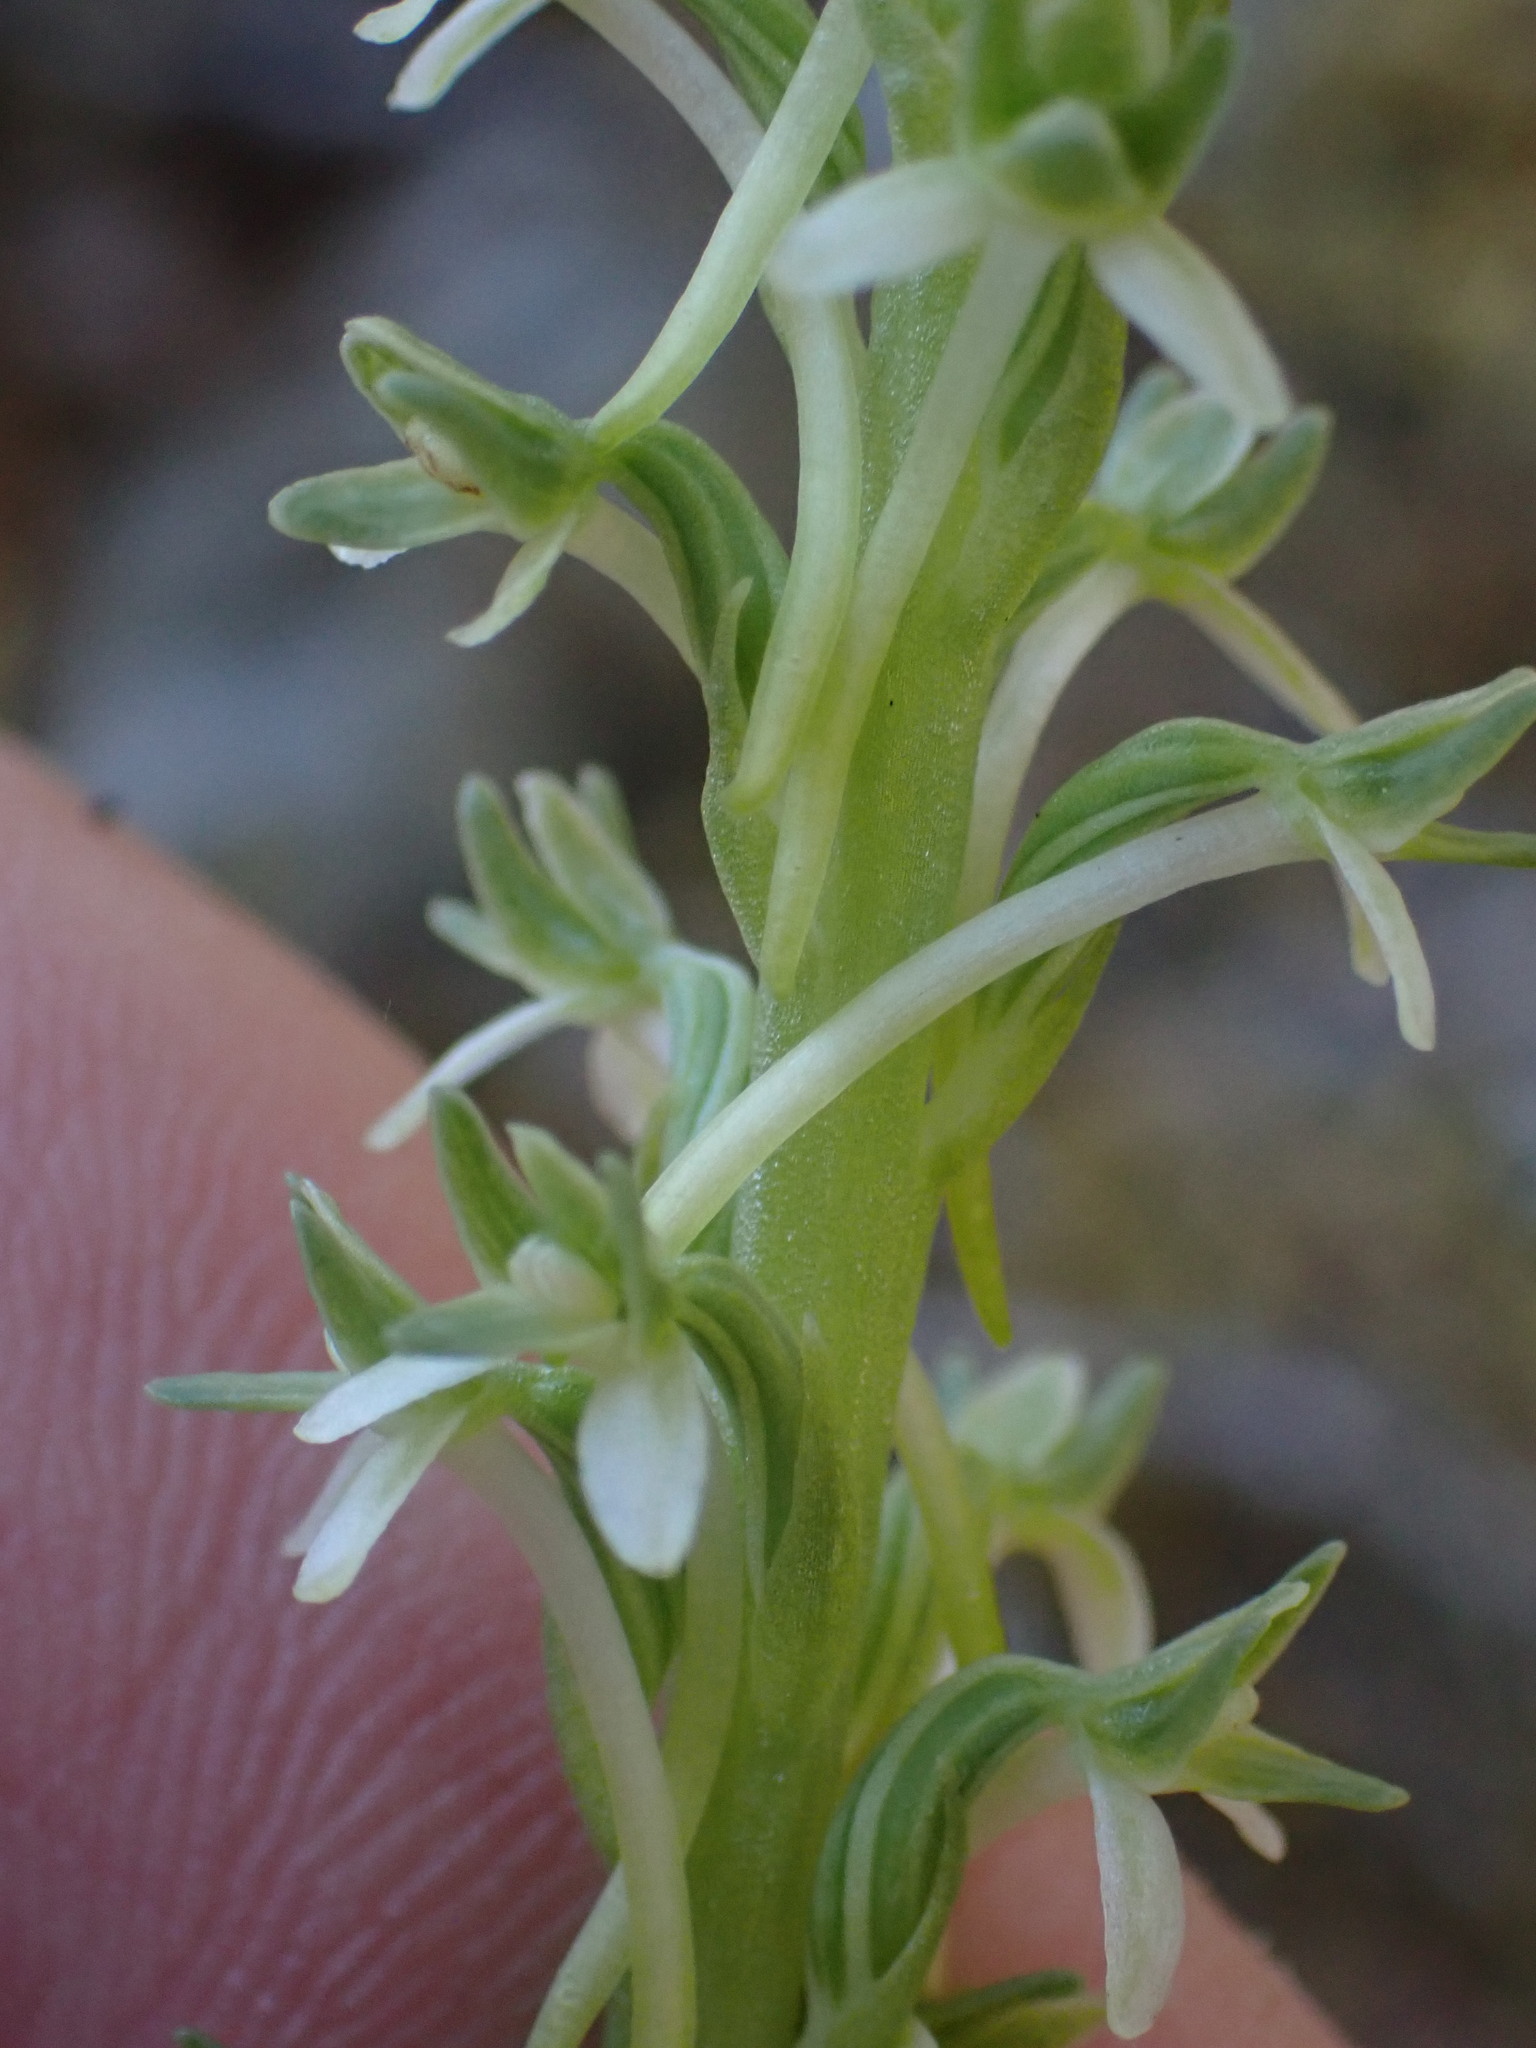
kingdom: Plantae
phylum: Tracheophyta
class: Liliopsida
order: Asparagales
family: Orchidaceae
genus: Platanthera
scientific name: Platanthera elongata
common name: Dense-flowered rein orchid
